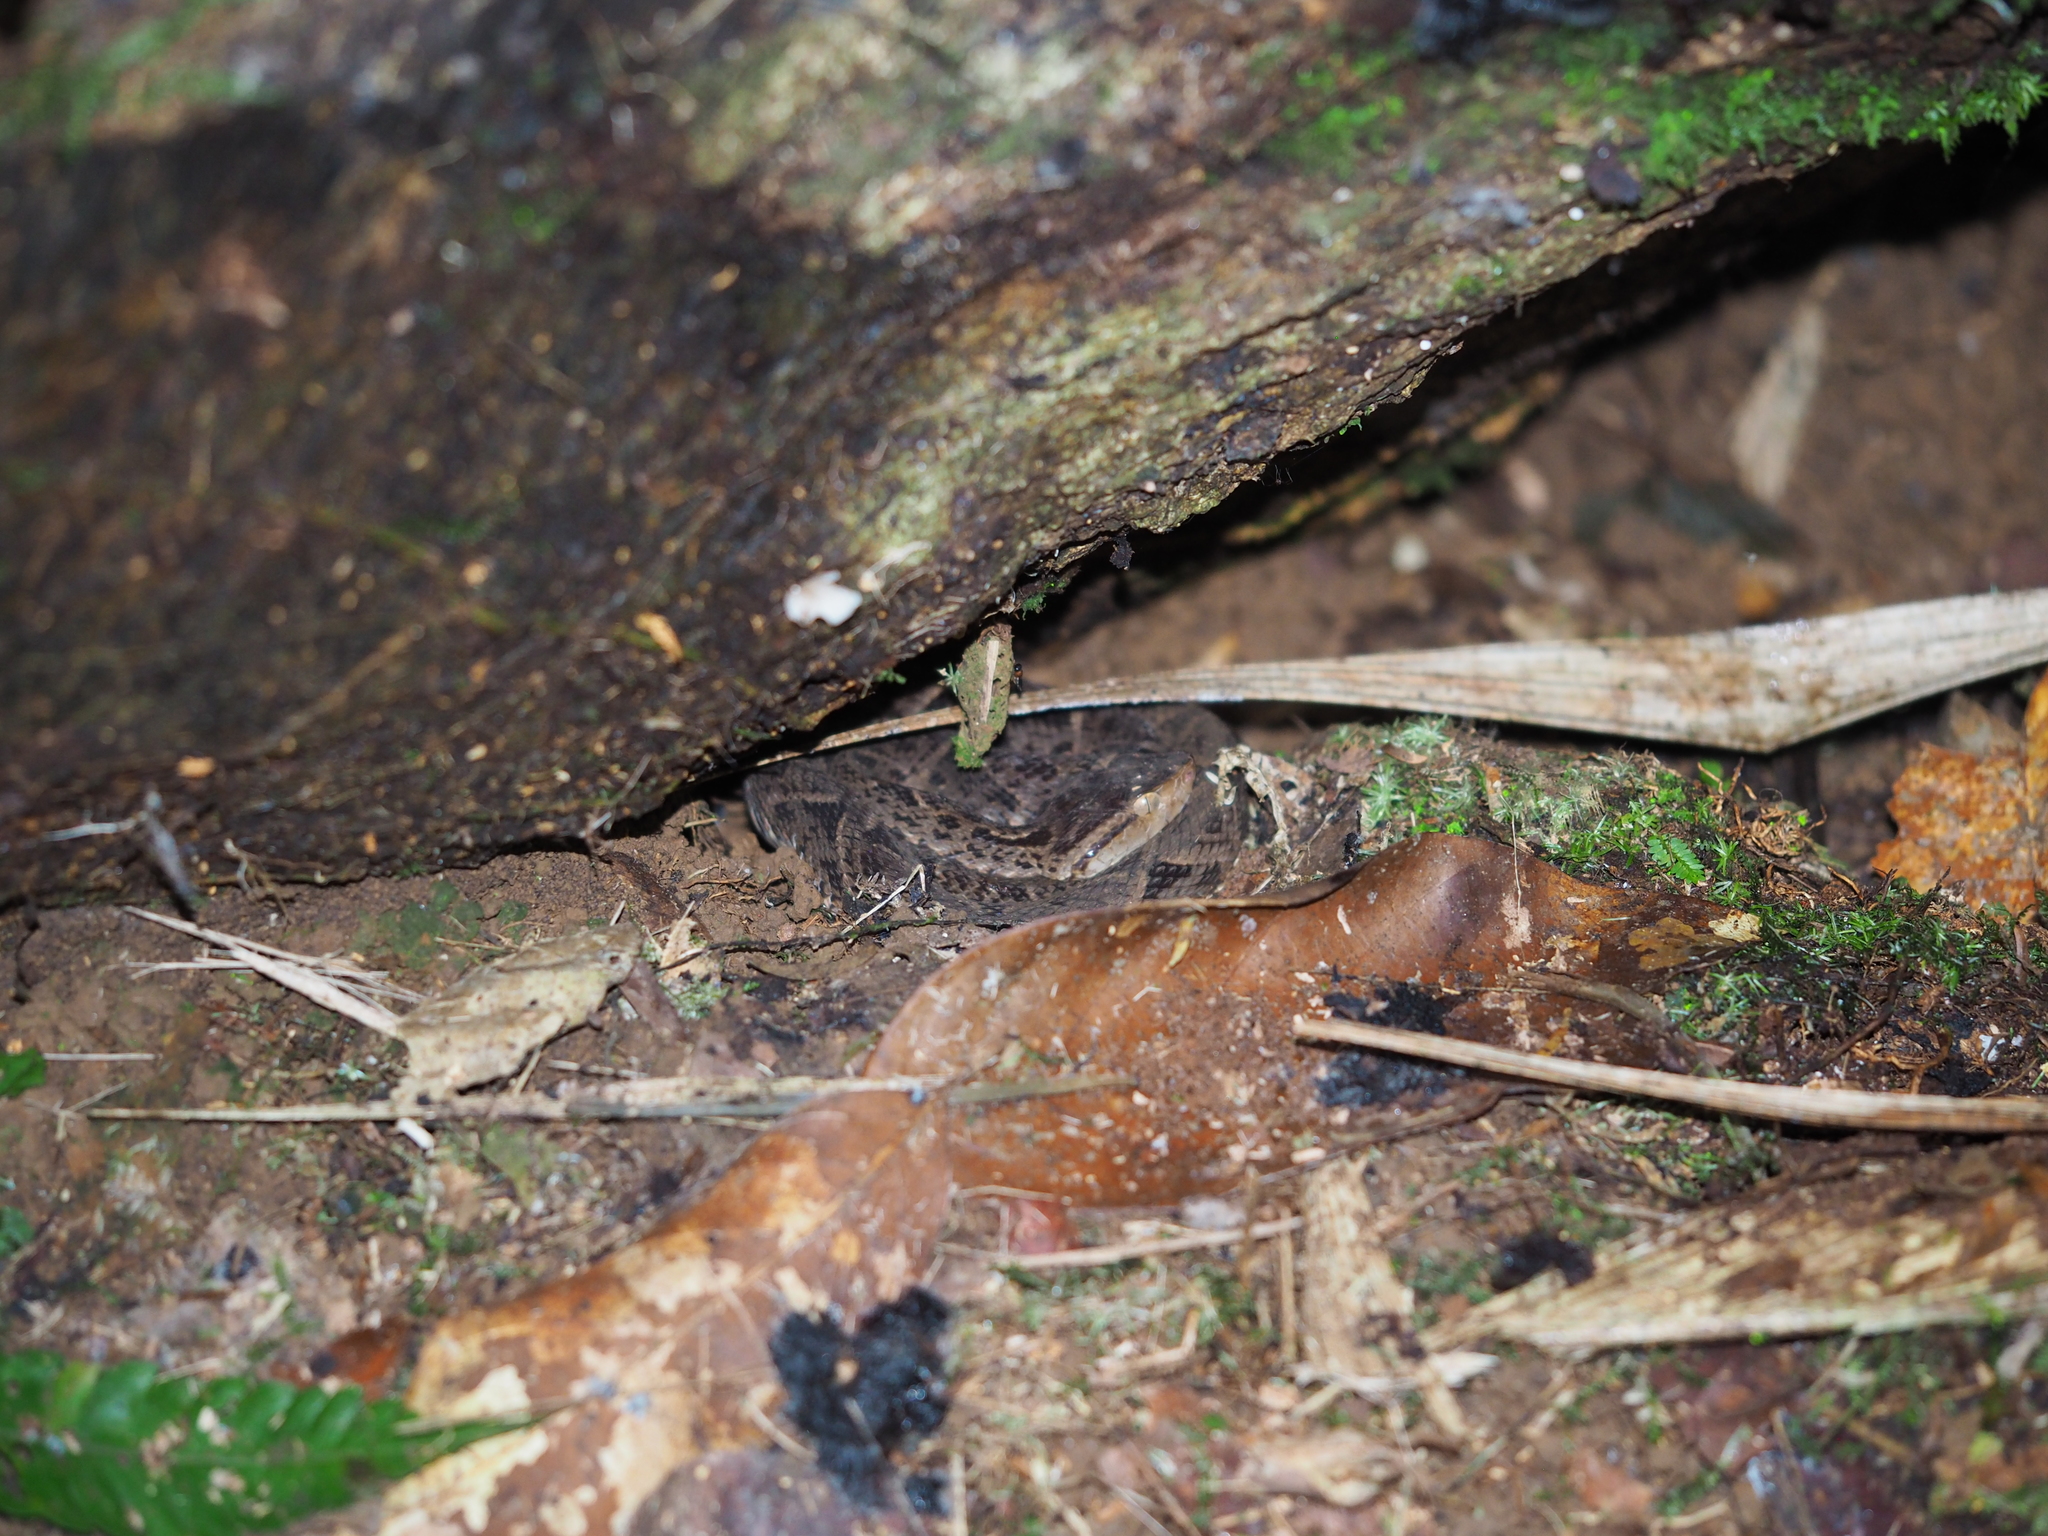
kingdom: Animalia
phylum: Chordata
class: Squamata
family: Viperidae
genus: Bothrops
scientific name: Bothrops asper
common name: Terciopelo
